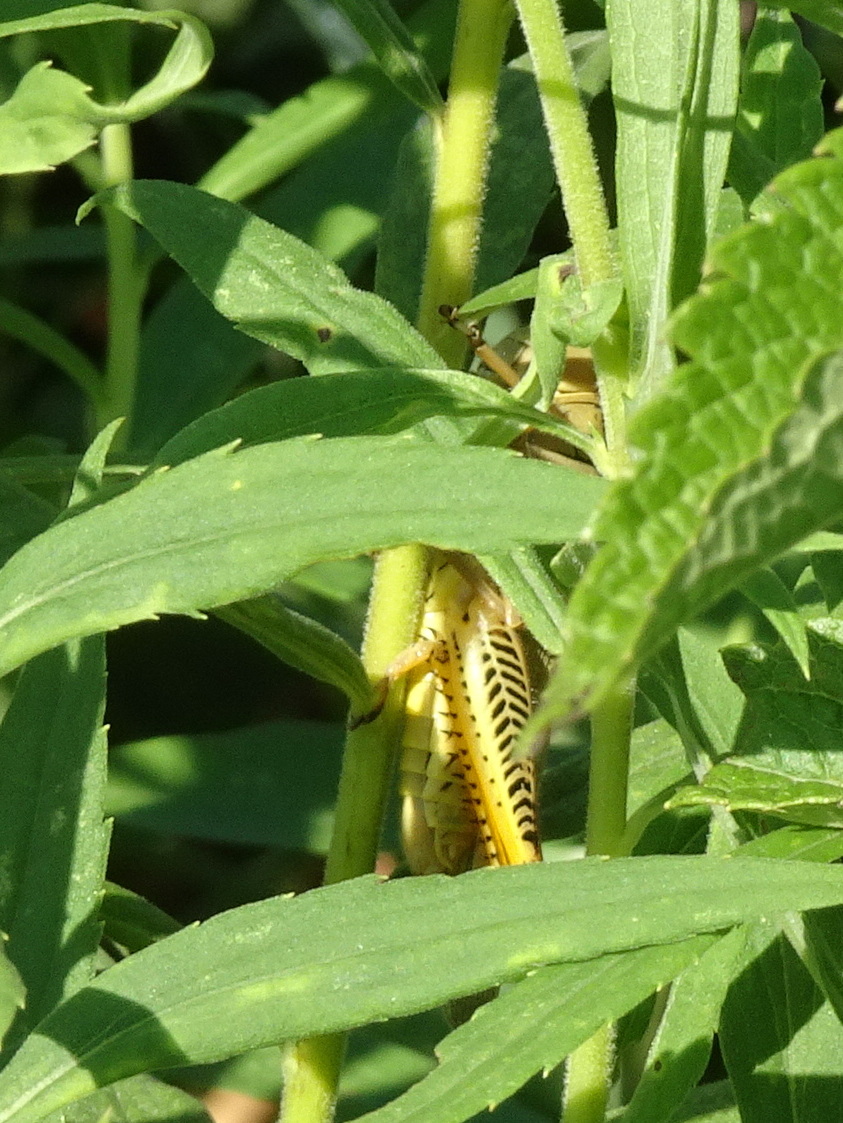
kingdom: Animalia
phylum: Arthropoda
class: Insecta
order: Orthoptera
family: Acrididae
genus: Melanoplus
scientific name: Melanoplus differentialis
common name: Differential grasshopper
